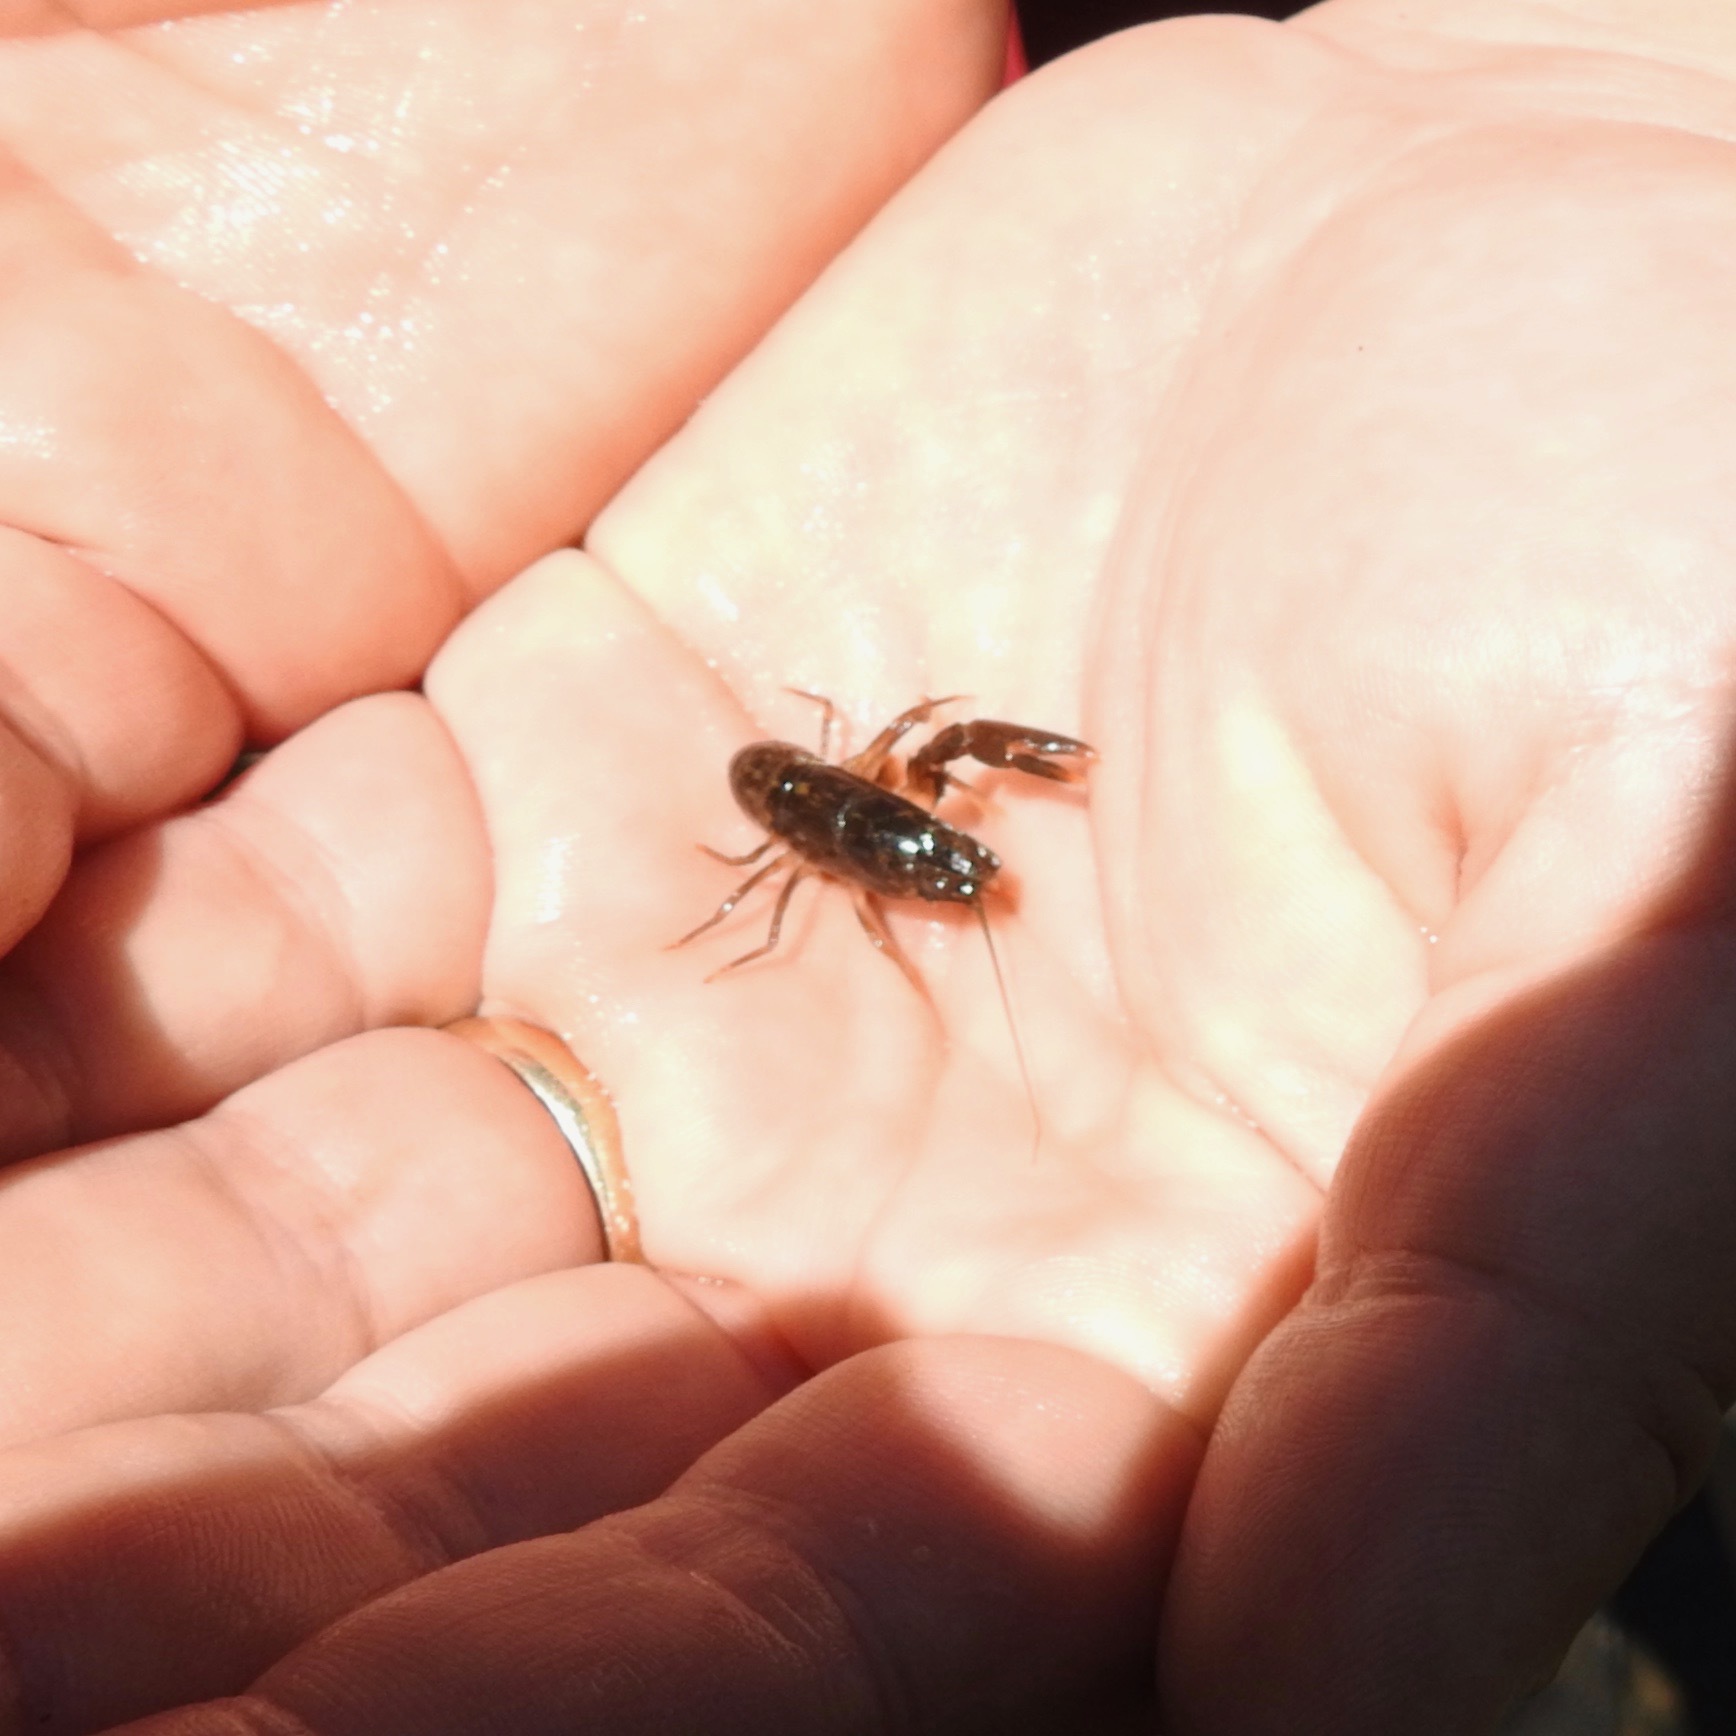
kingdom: Animalia
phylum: Arthropoda
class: Malacostraca
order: Decapoda
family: Astacidae
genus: Pacifastacus
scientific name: Pacifastacus leniusculus
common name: Signal crayfish
